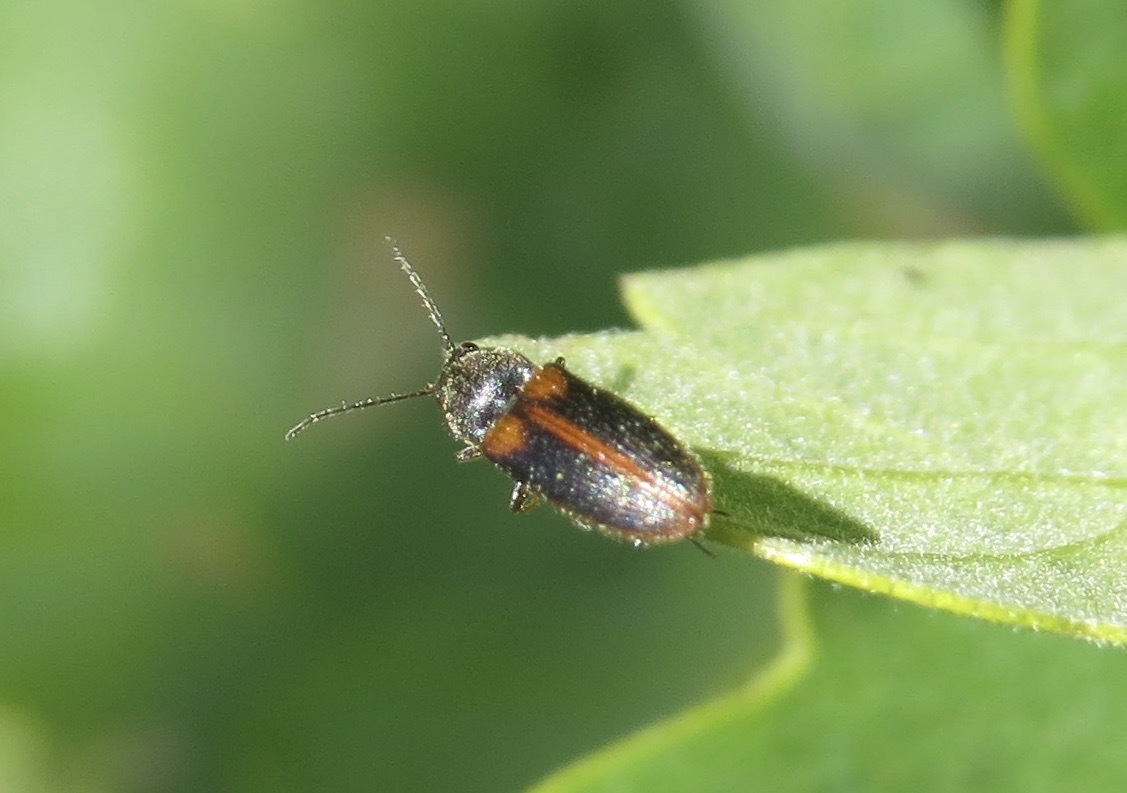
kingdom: Animalia
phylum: Arthropoda
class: Insecta
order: Coleoptera
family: Elateridae
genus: Tetralimonius
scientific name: Tetralimonius
